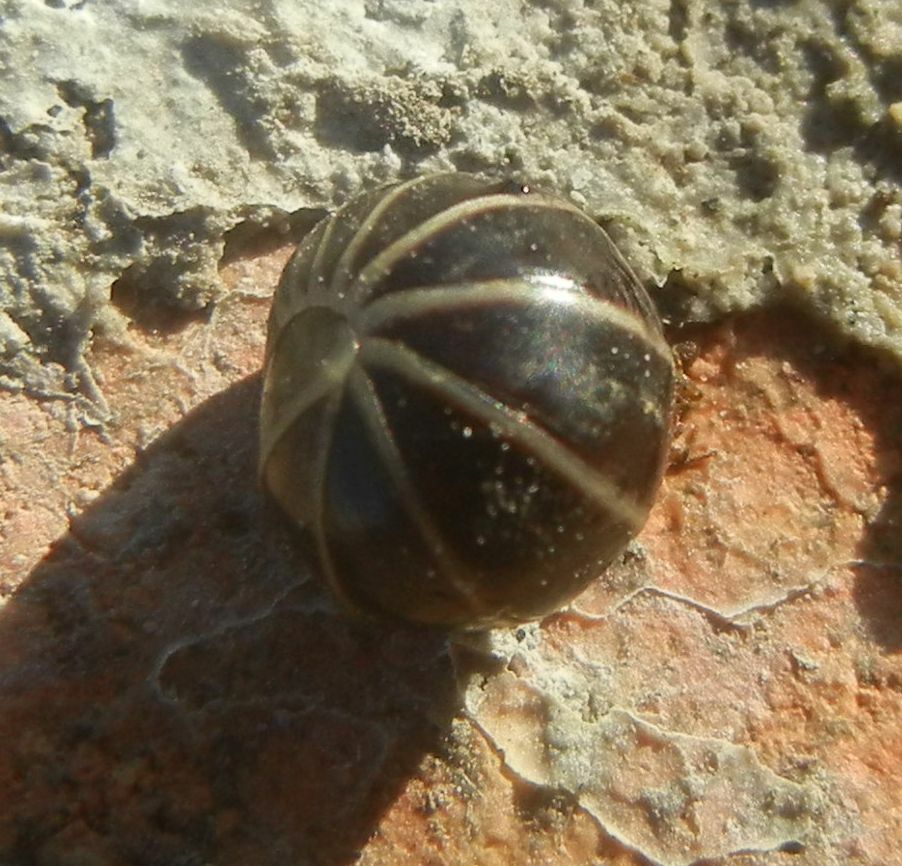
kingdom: Animalia
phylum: Arthropoda
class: Diplopoda
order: Glomerida
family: Glomeridae
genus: Glomeris
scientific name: Glomeris marginata
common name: Bordered pill millipede
